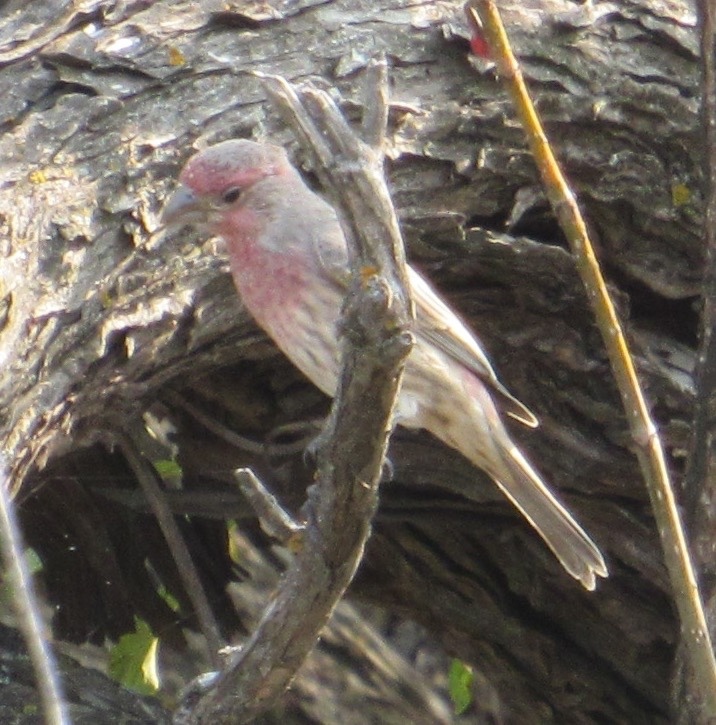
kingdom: Animalia
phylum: Chordata
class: Aves
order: Passeriformes
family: Fringillidae
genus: Haemorhous
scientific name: Haemorhous mexicanus
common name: House finch
